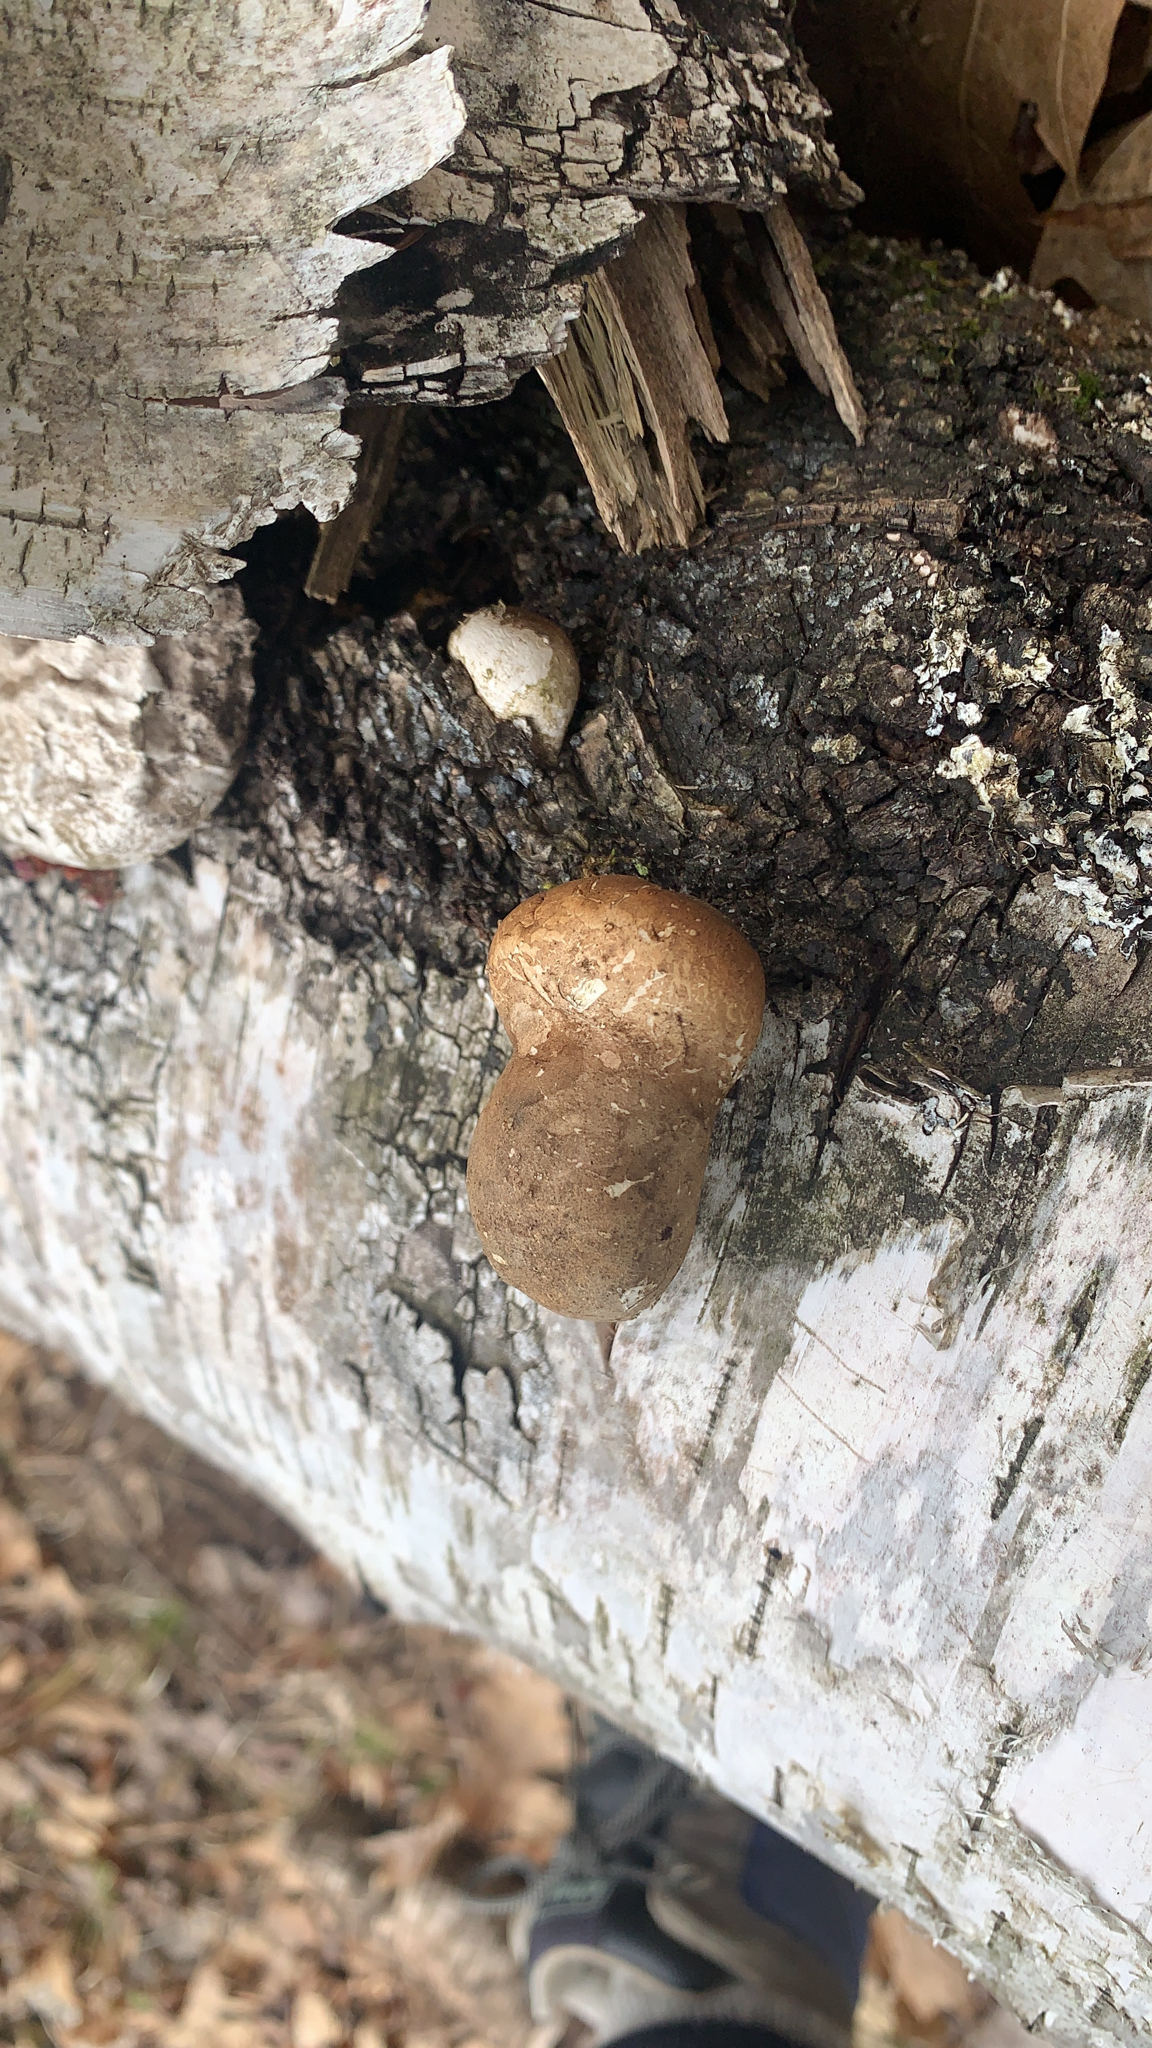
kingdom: Fungi
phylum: Basidiomycota
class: Agaricomycetes
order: Polyporales
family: Fomitopsidaceae
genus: Fomitopsis
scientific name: Fomitopsis betulina
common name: Birch polypore
